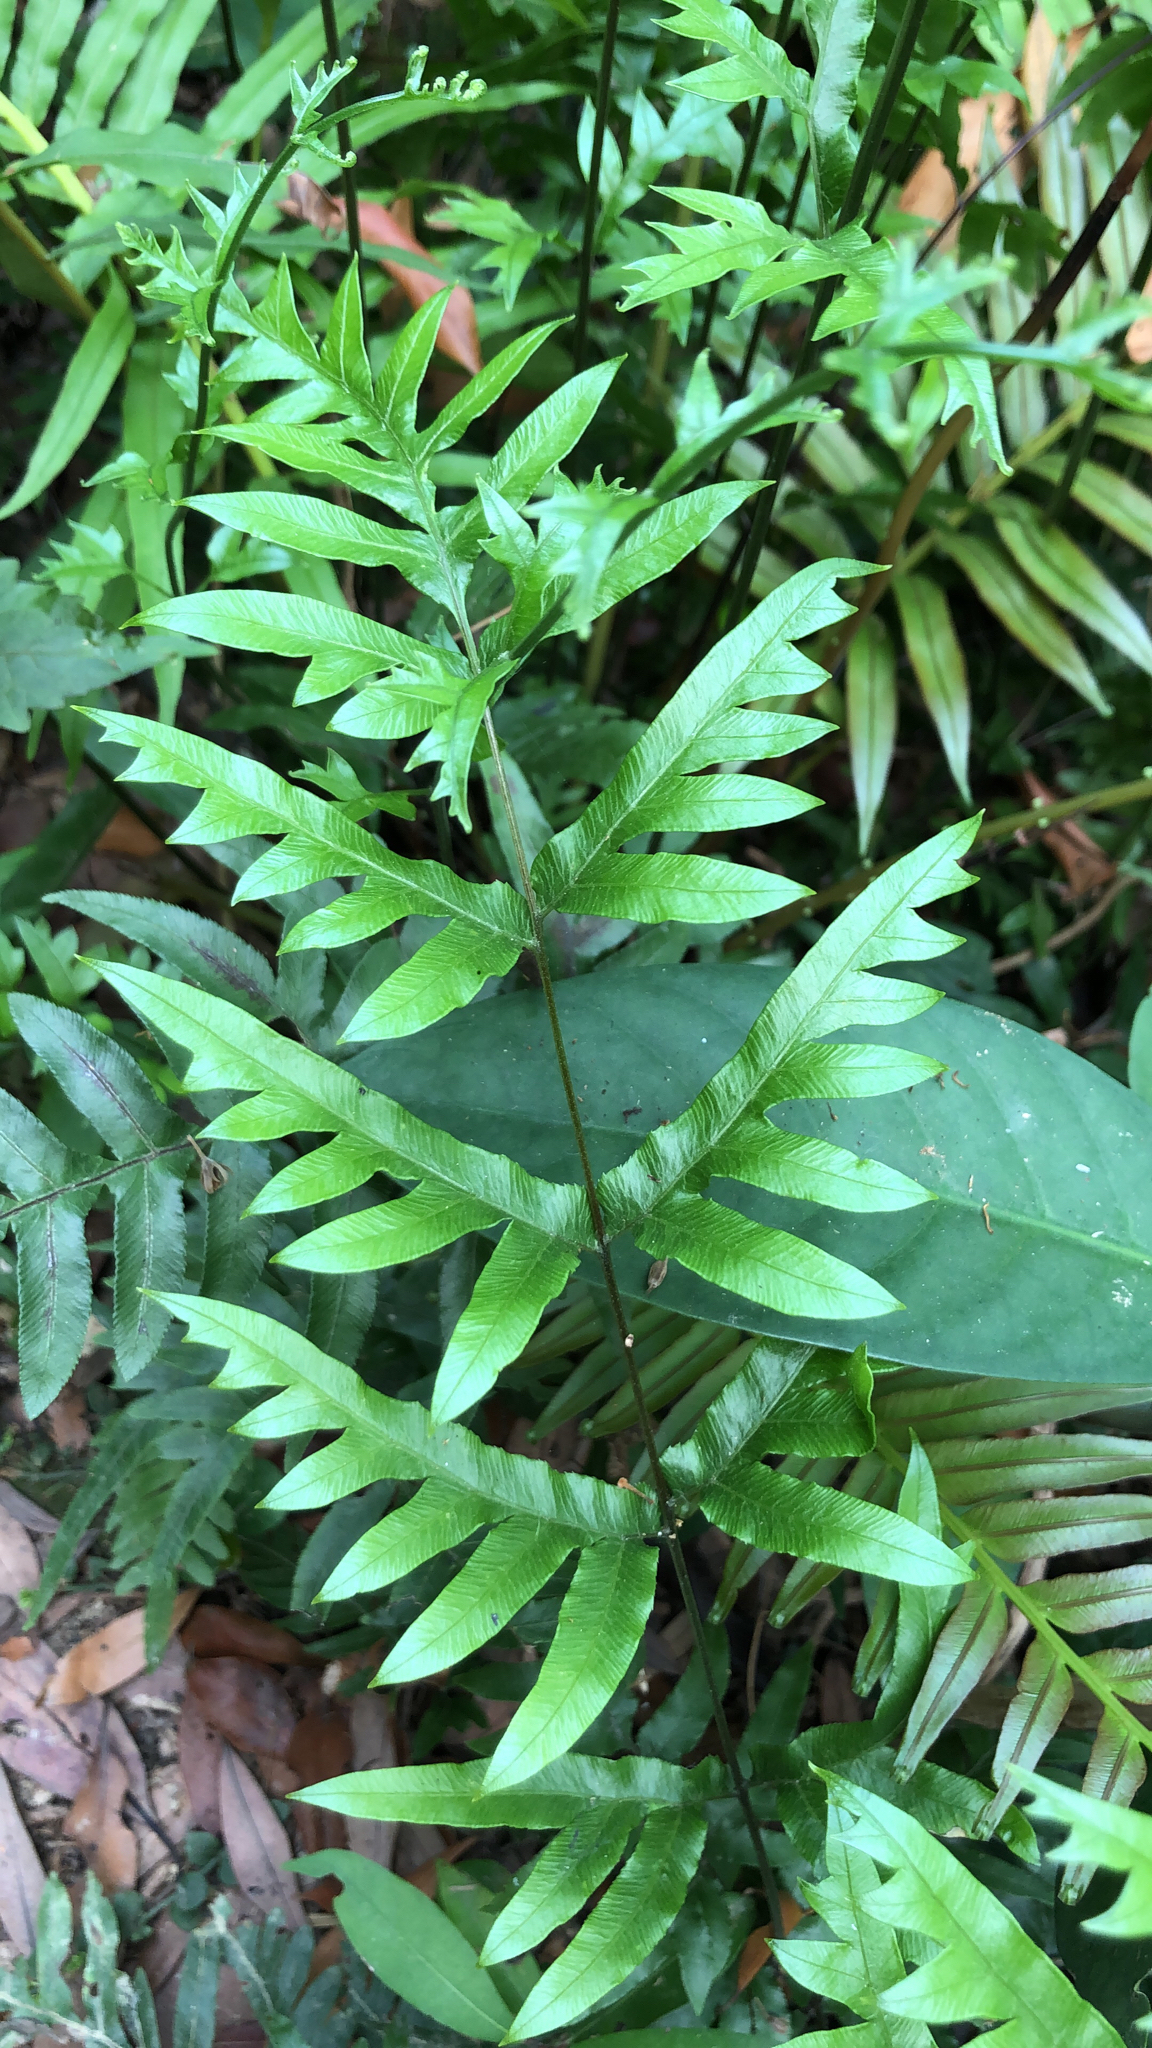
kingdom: Plantae
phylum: Tracheophyta
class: Polypodiopsida
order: Polypodiales
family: Pteridaceae
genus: Pteris
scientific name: Pteris semipinnata
